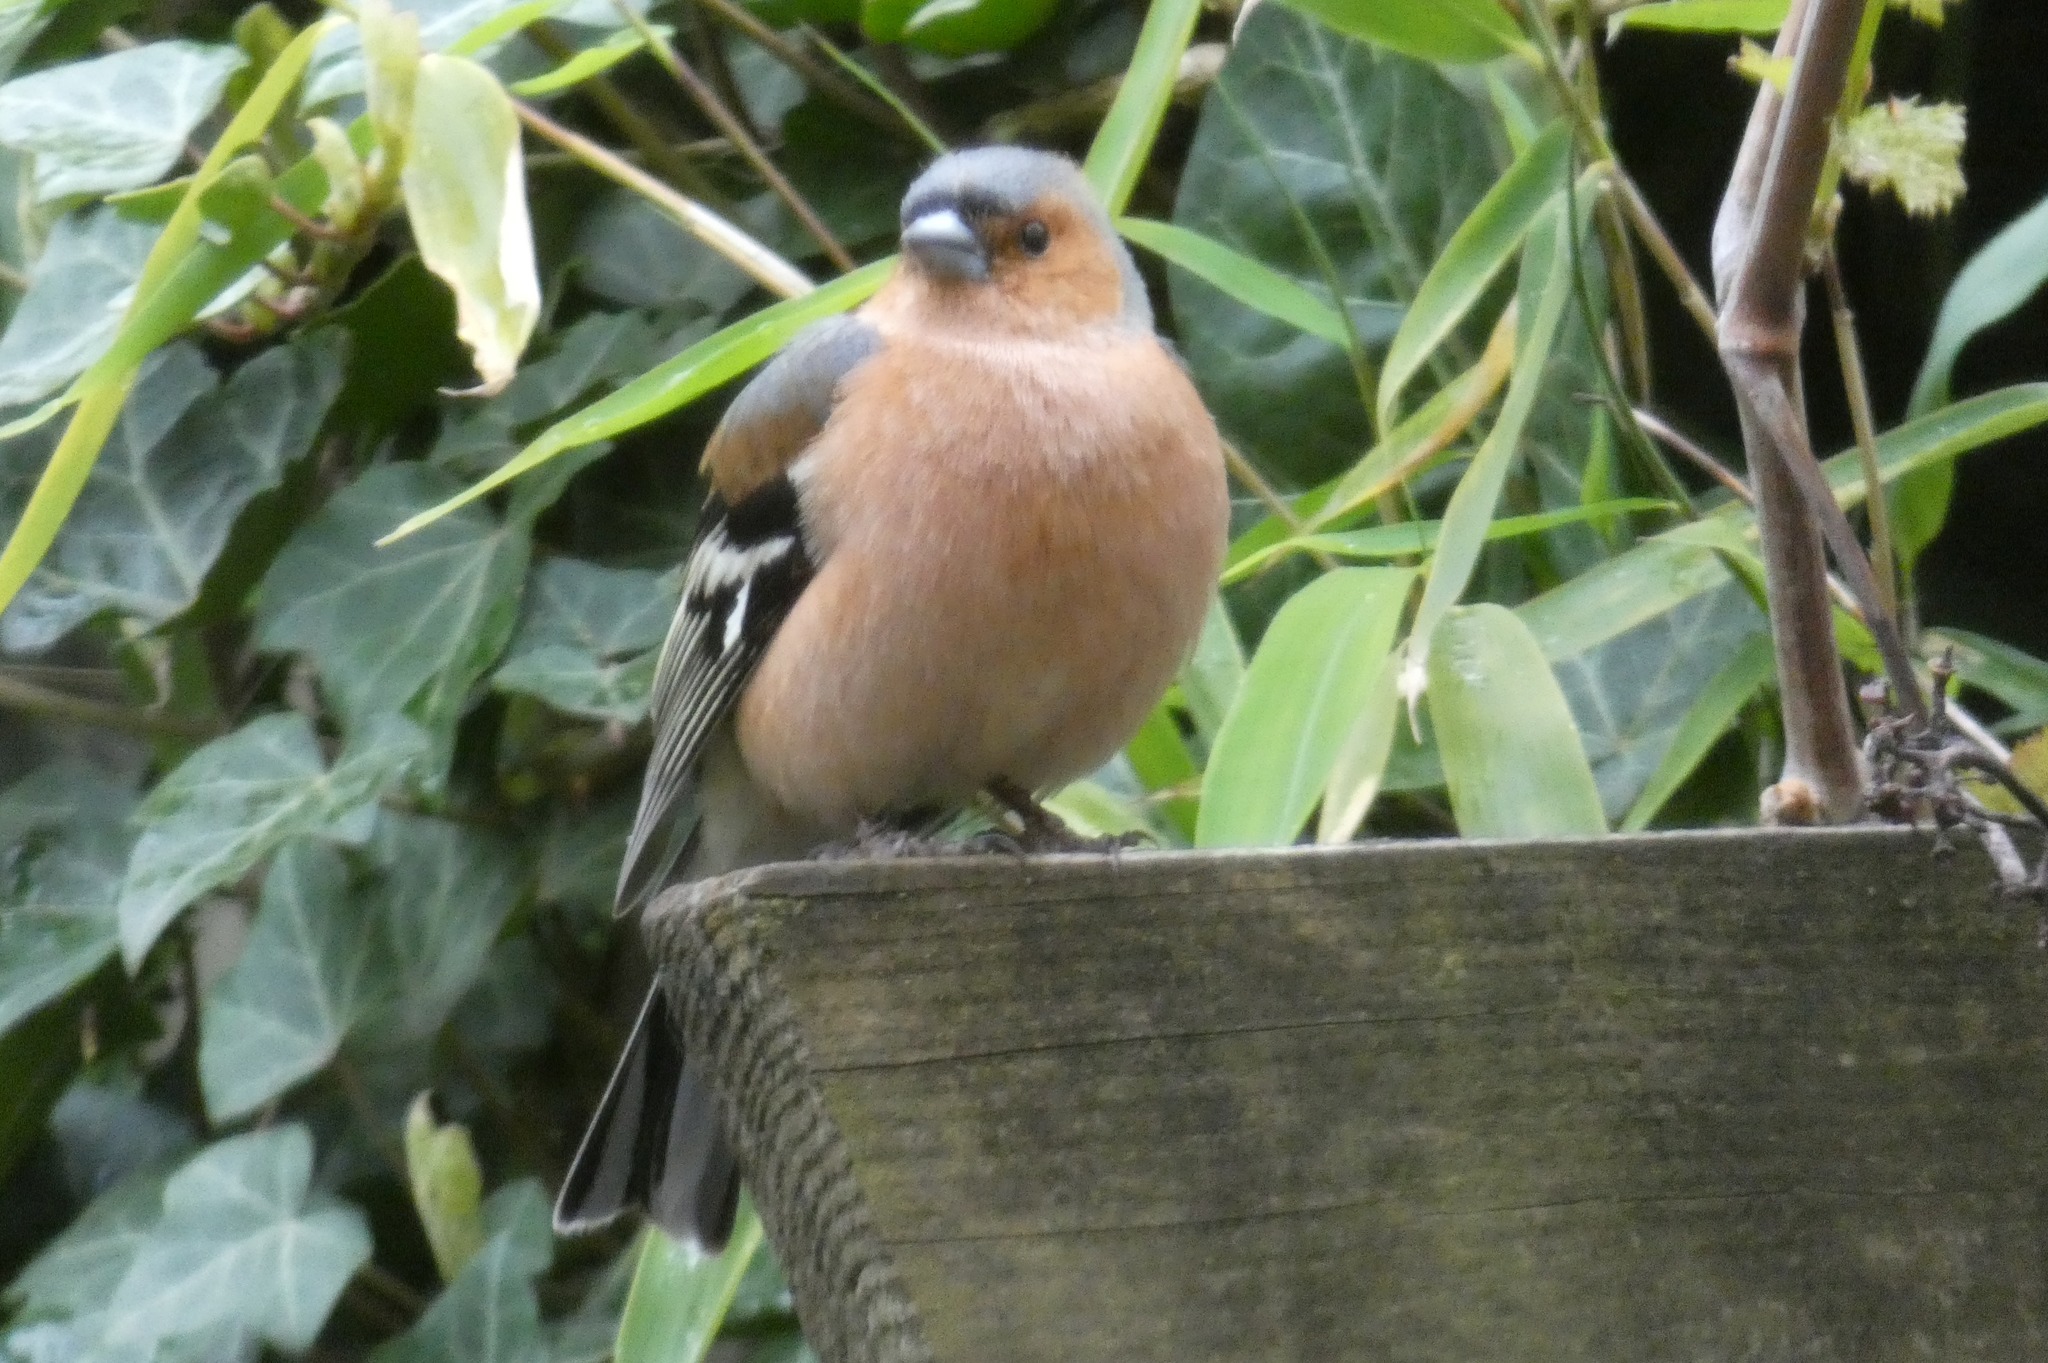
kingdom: Animalia
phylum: Chordata
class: Aves
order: Passeriformes
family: Fringillidae
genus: Fringilla
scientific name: Fringilla coelebs
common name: Common chaffinch
